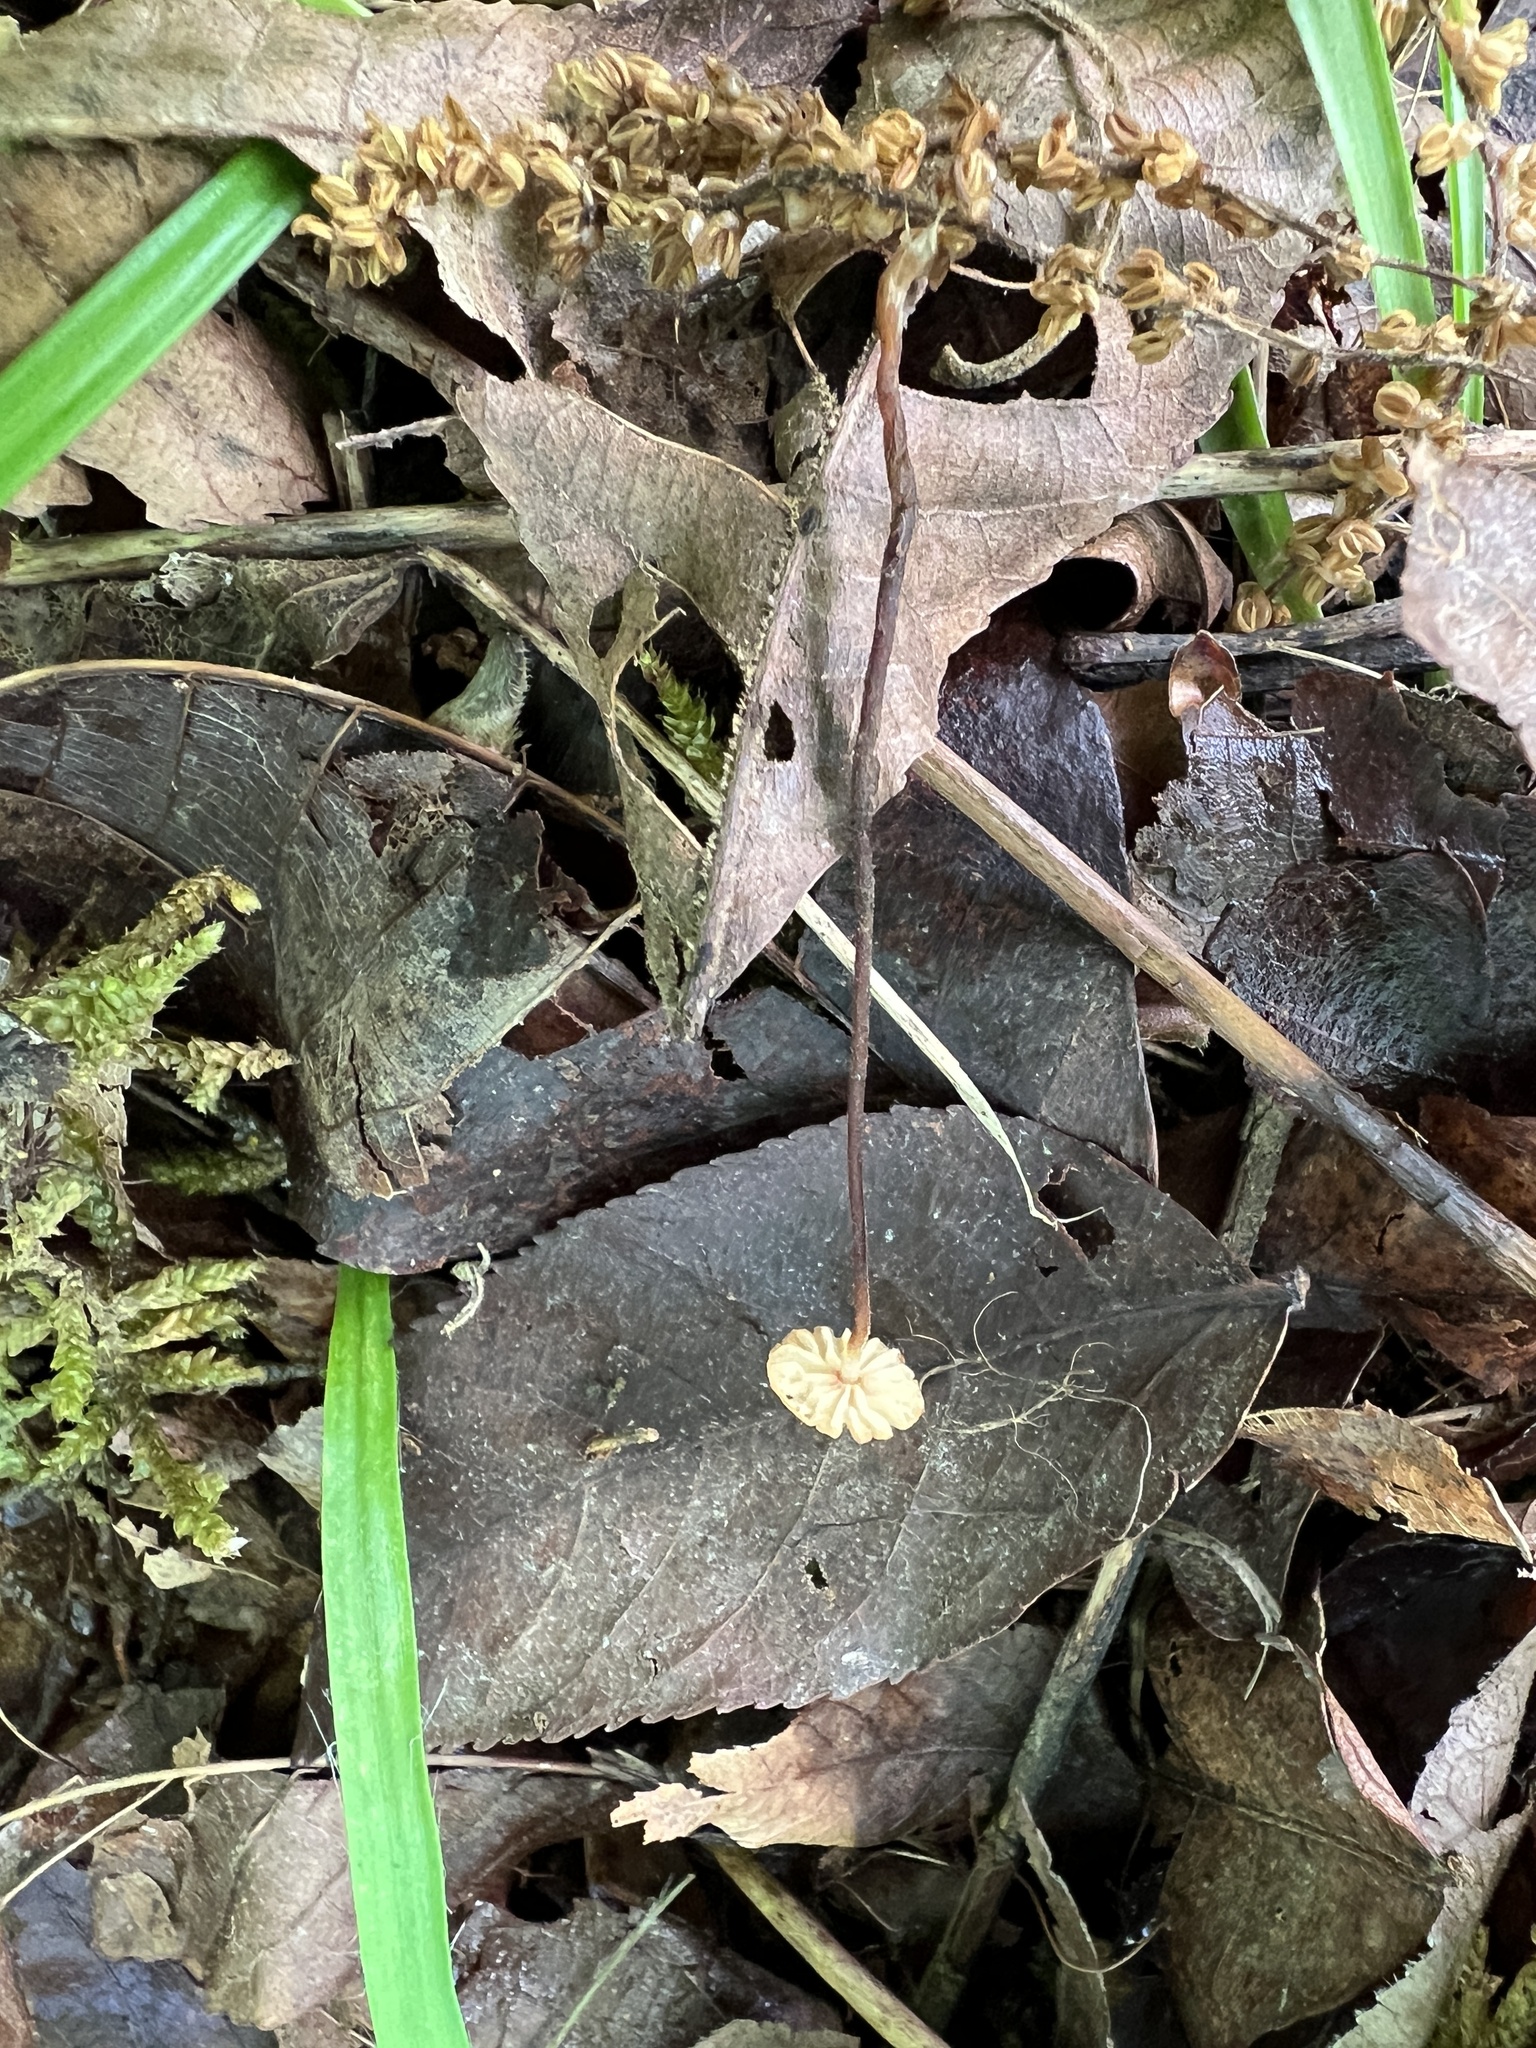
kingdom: Fungi
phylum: Basidiomycota
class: Agaricomycetes
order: Agaricales
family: Physalacriaceae
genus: Rhizomarasmius
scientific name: Rhizomarasmius pyrrhocephalus
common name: Hairy long stem marasmius
